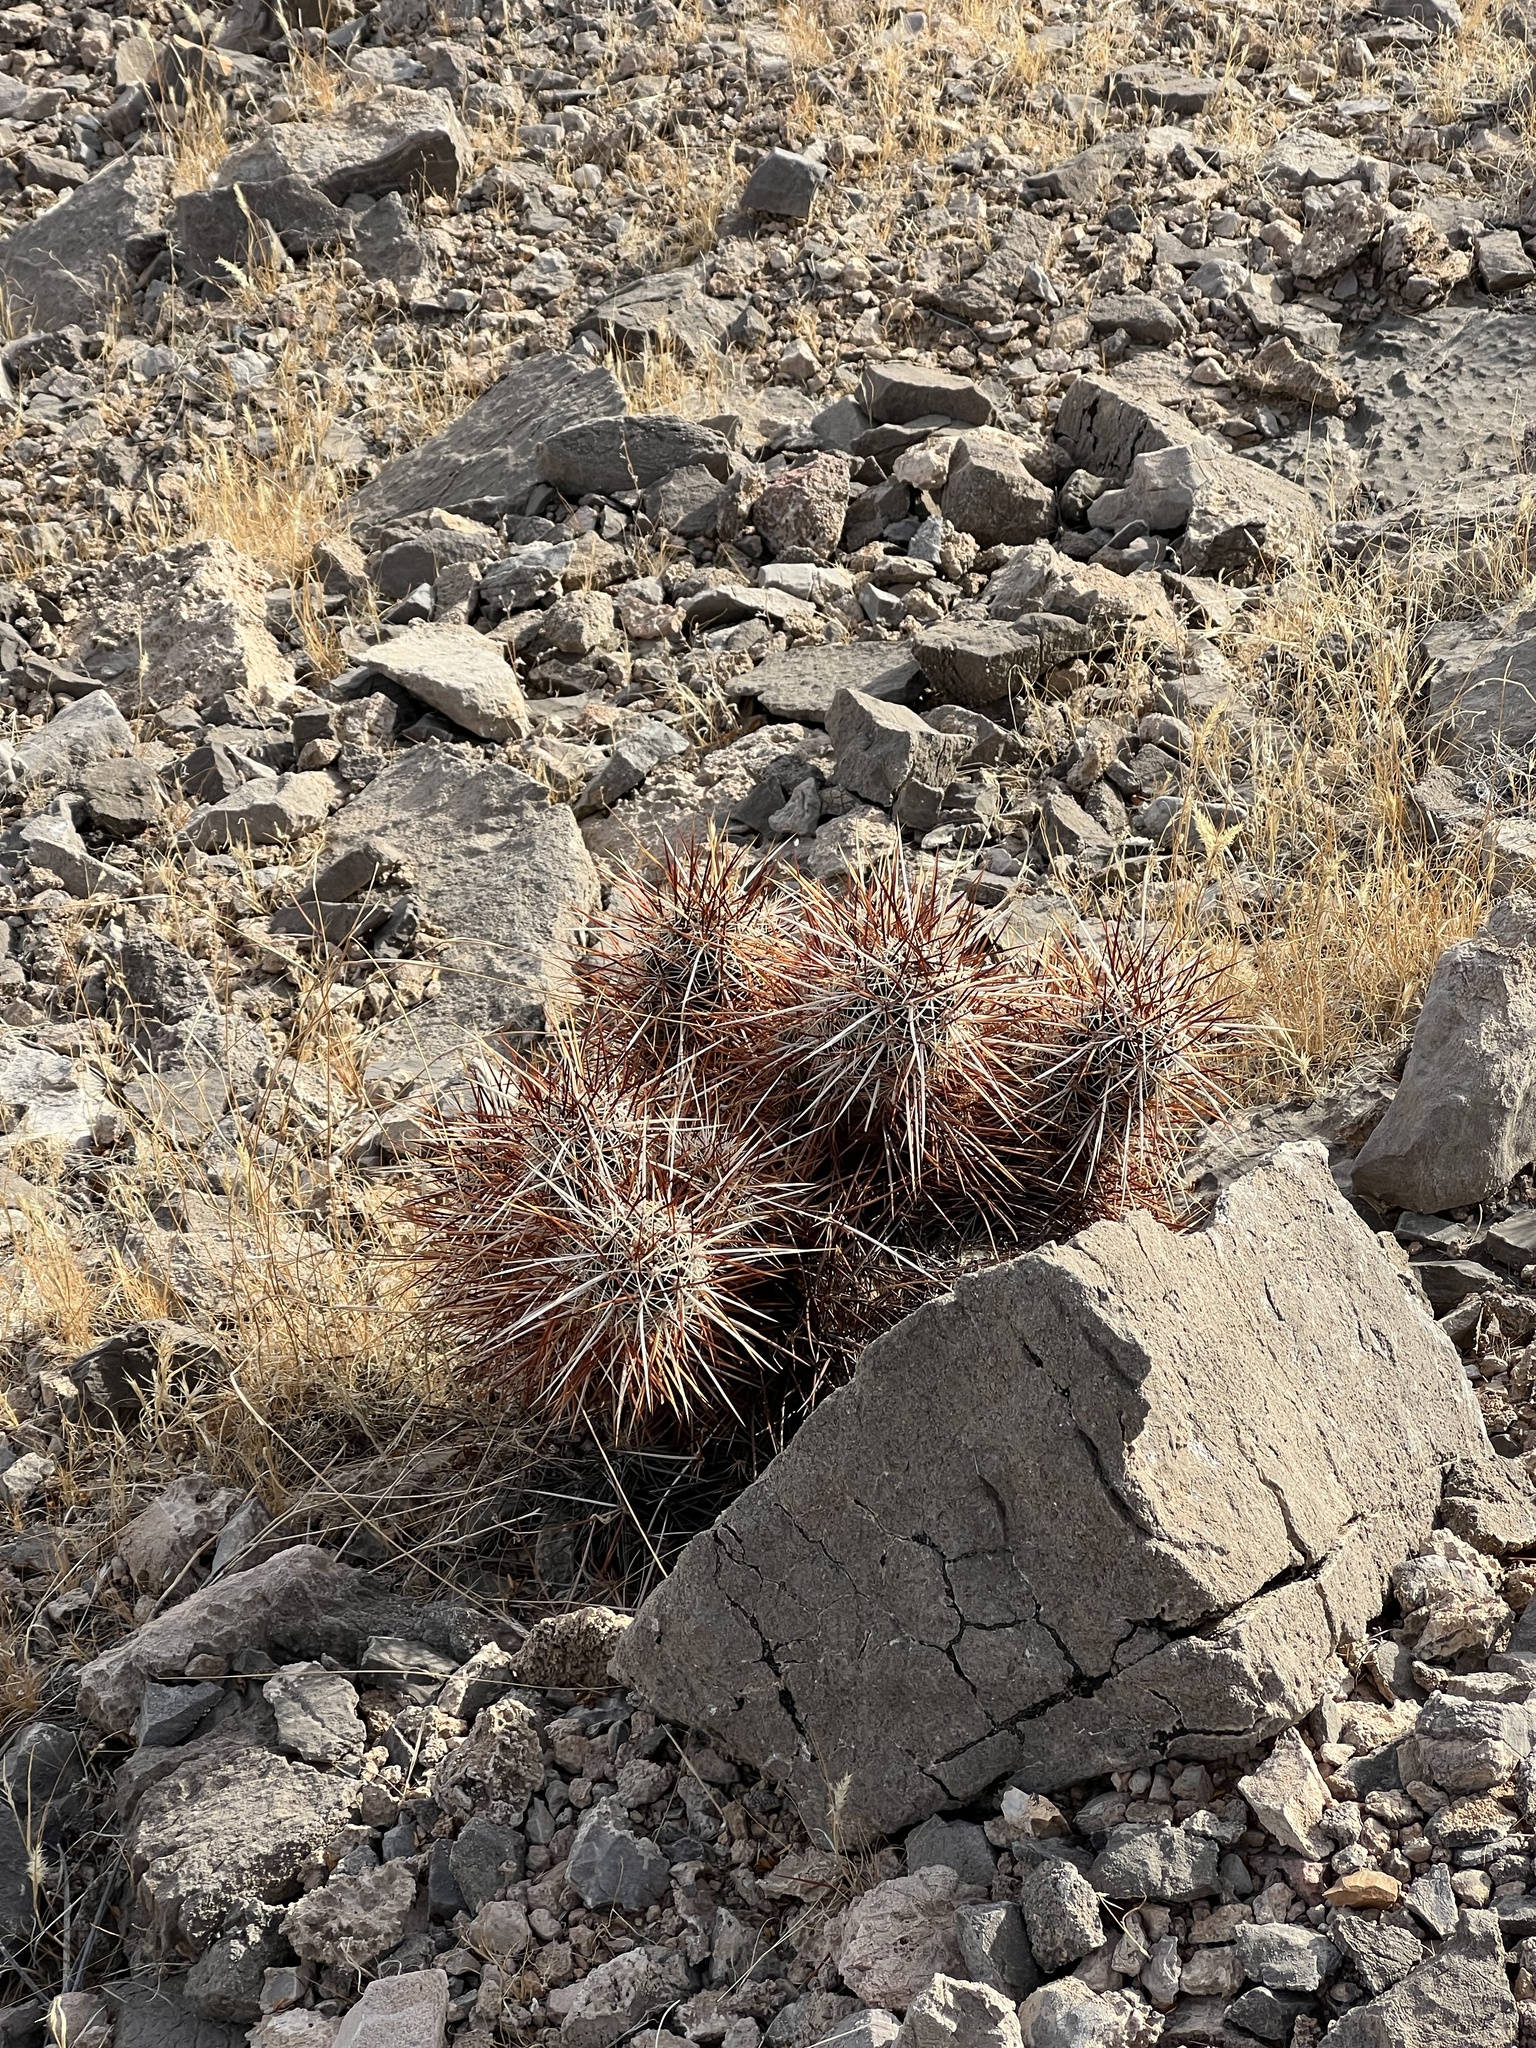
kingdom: Plantae
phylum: Tracheophyta
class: Magnoliopsida
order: Caryophyllales
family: Cactaceae
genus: Echinocereus
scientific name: Echinocereus engelmannii
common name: Engelmann's hedgehog cactus
